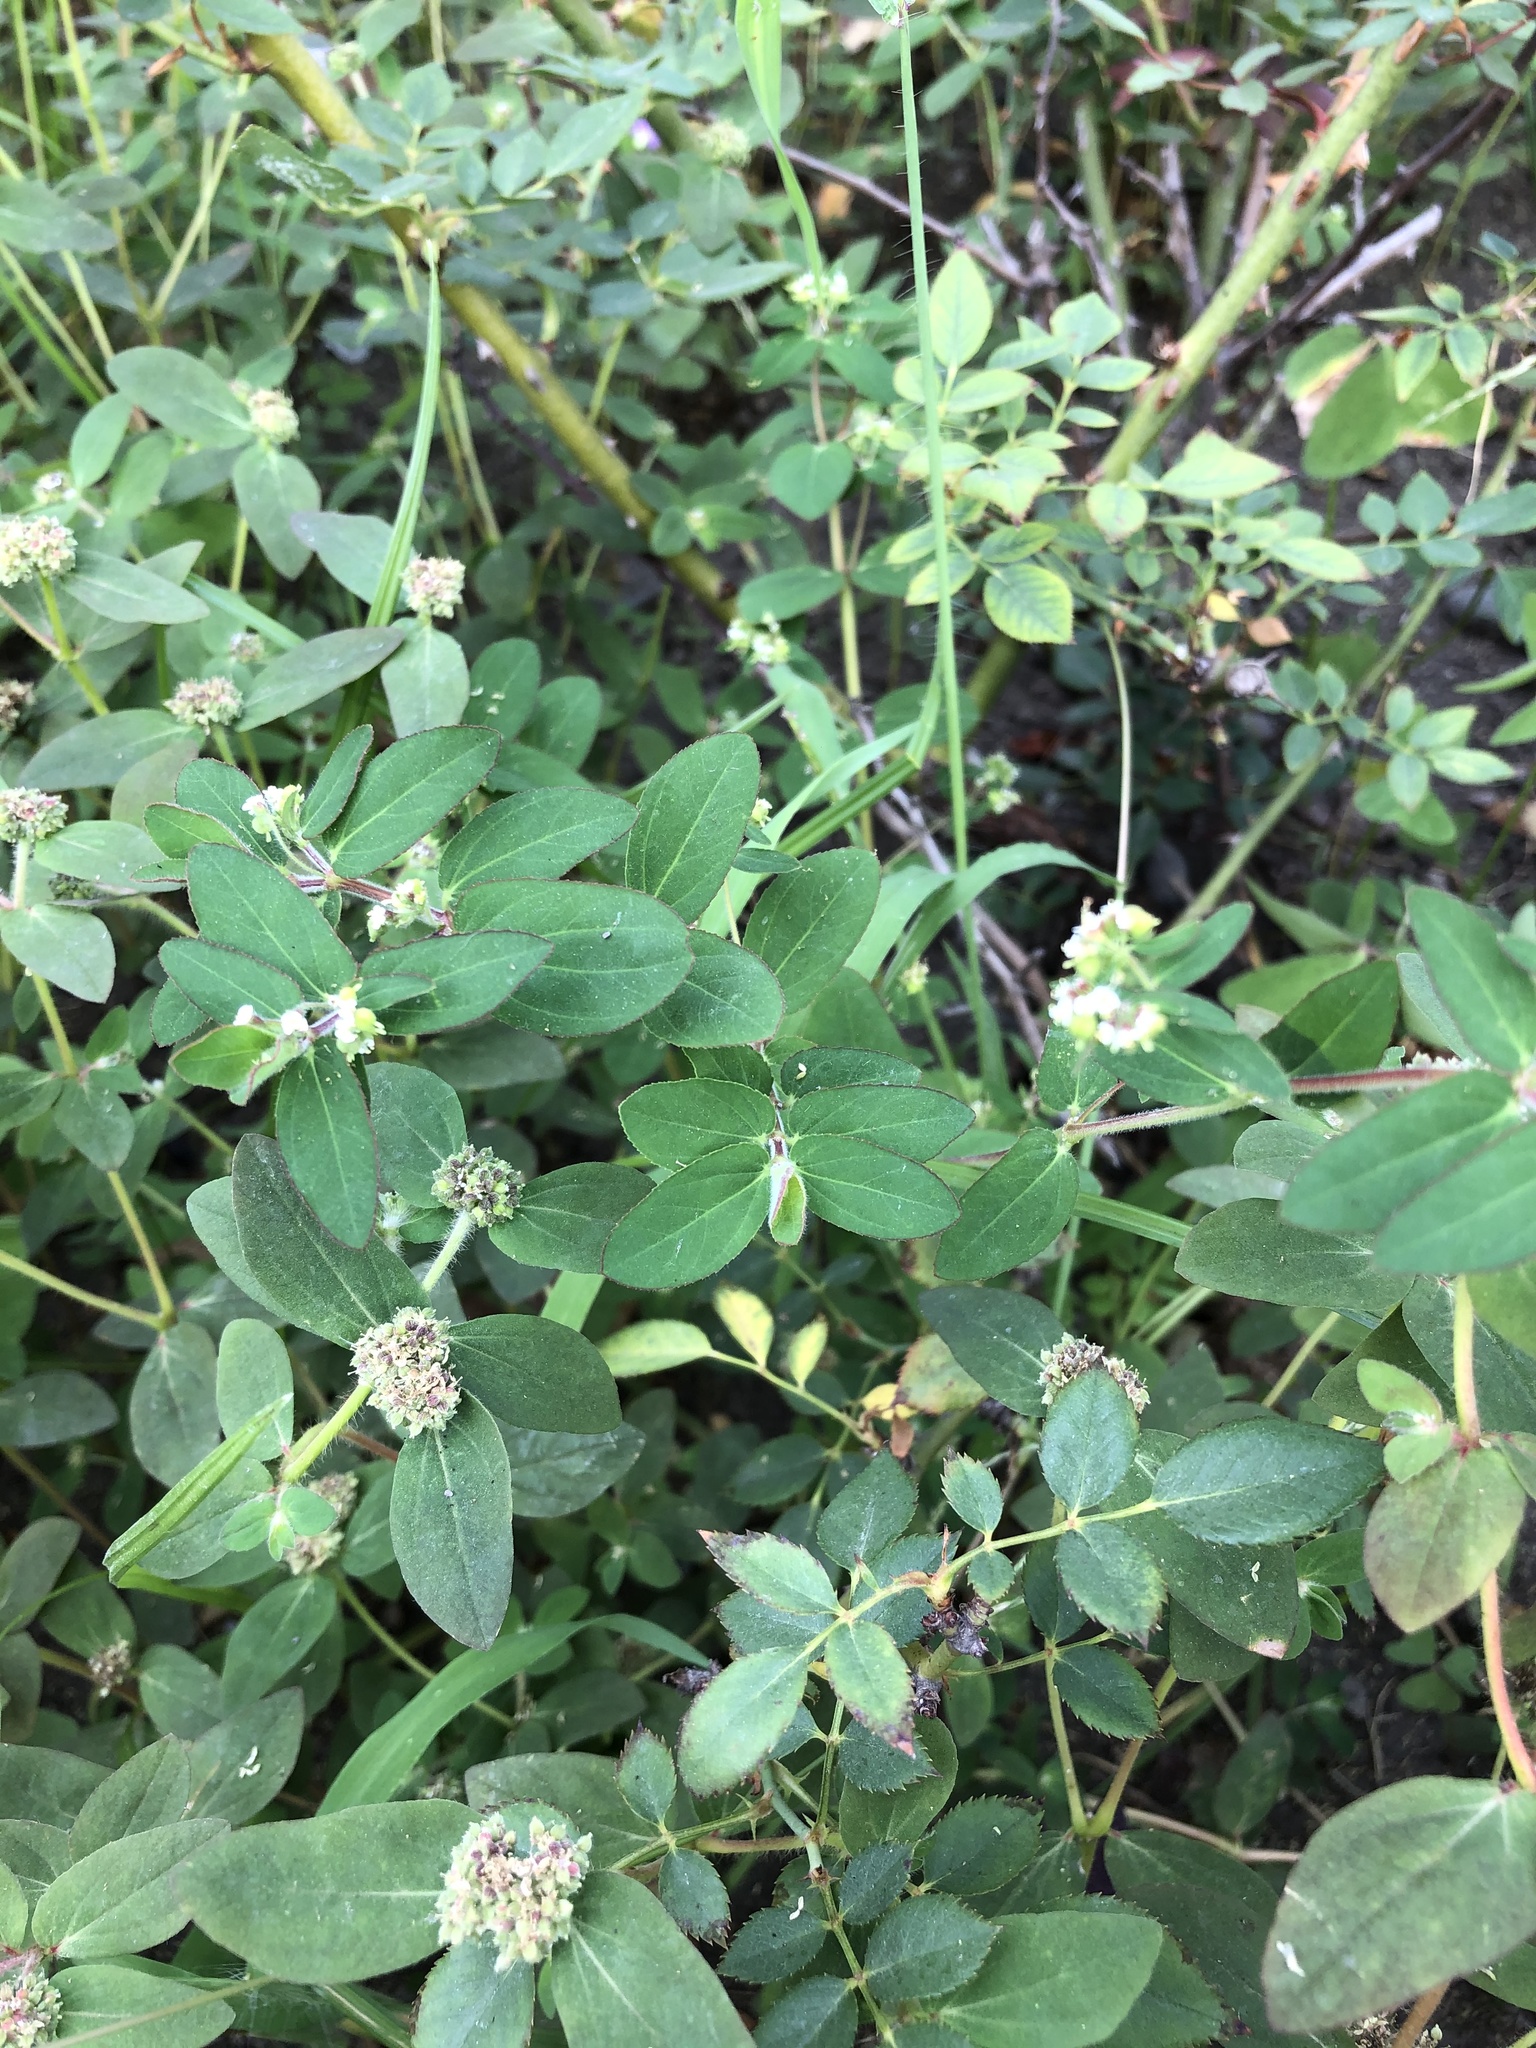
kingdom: Plantae
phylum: Tracheophyta
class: Magnoliopsida
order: Malpighiales
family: Euphorbiaceae
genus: Euphorbia
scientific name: Euphorbia lasiocarpa
